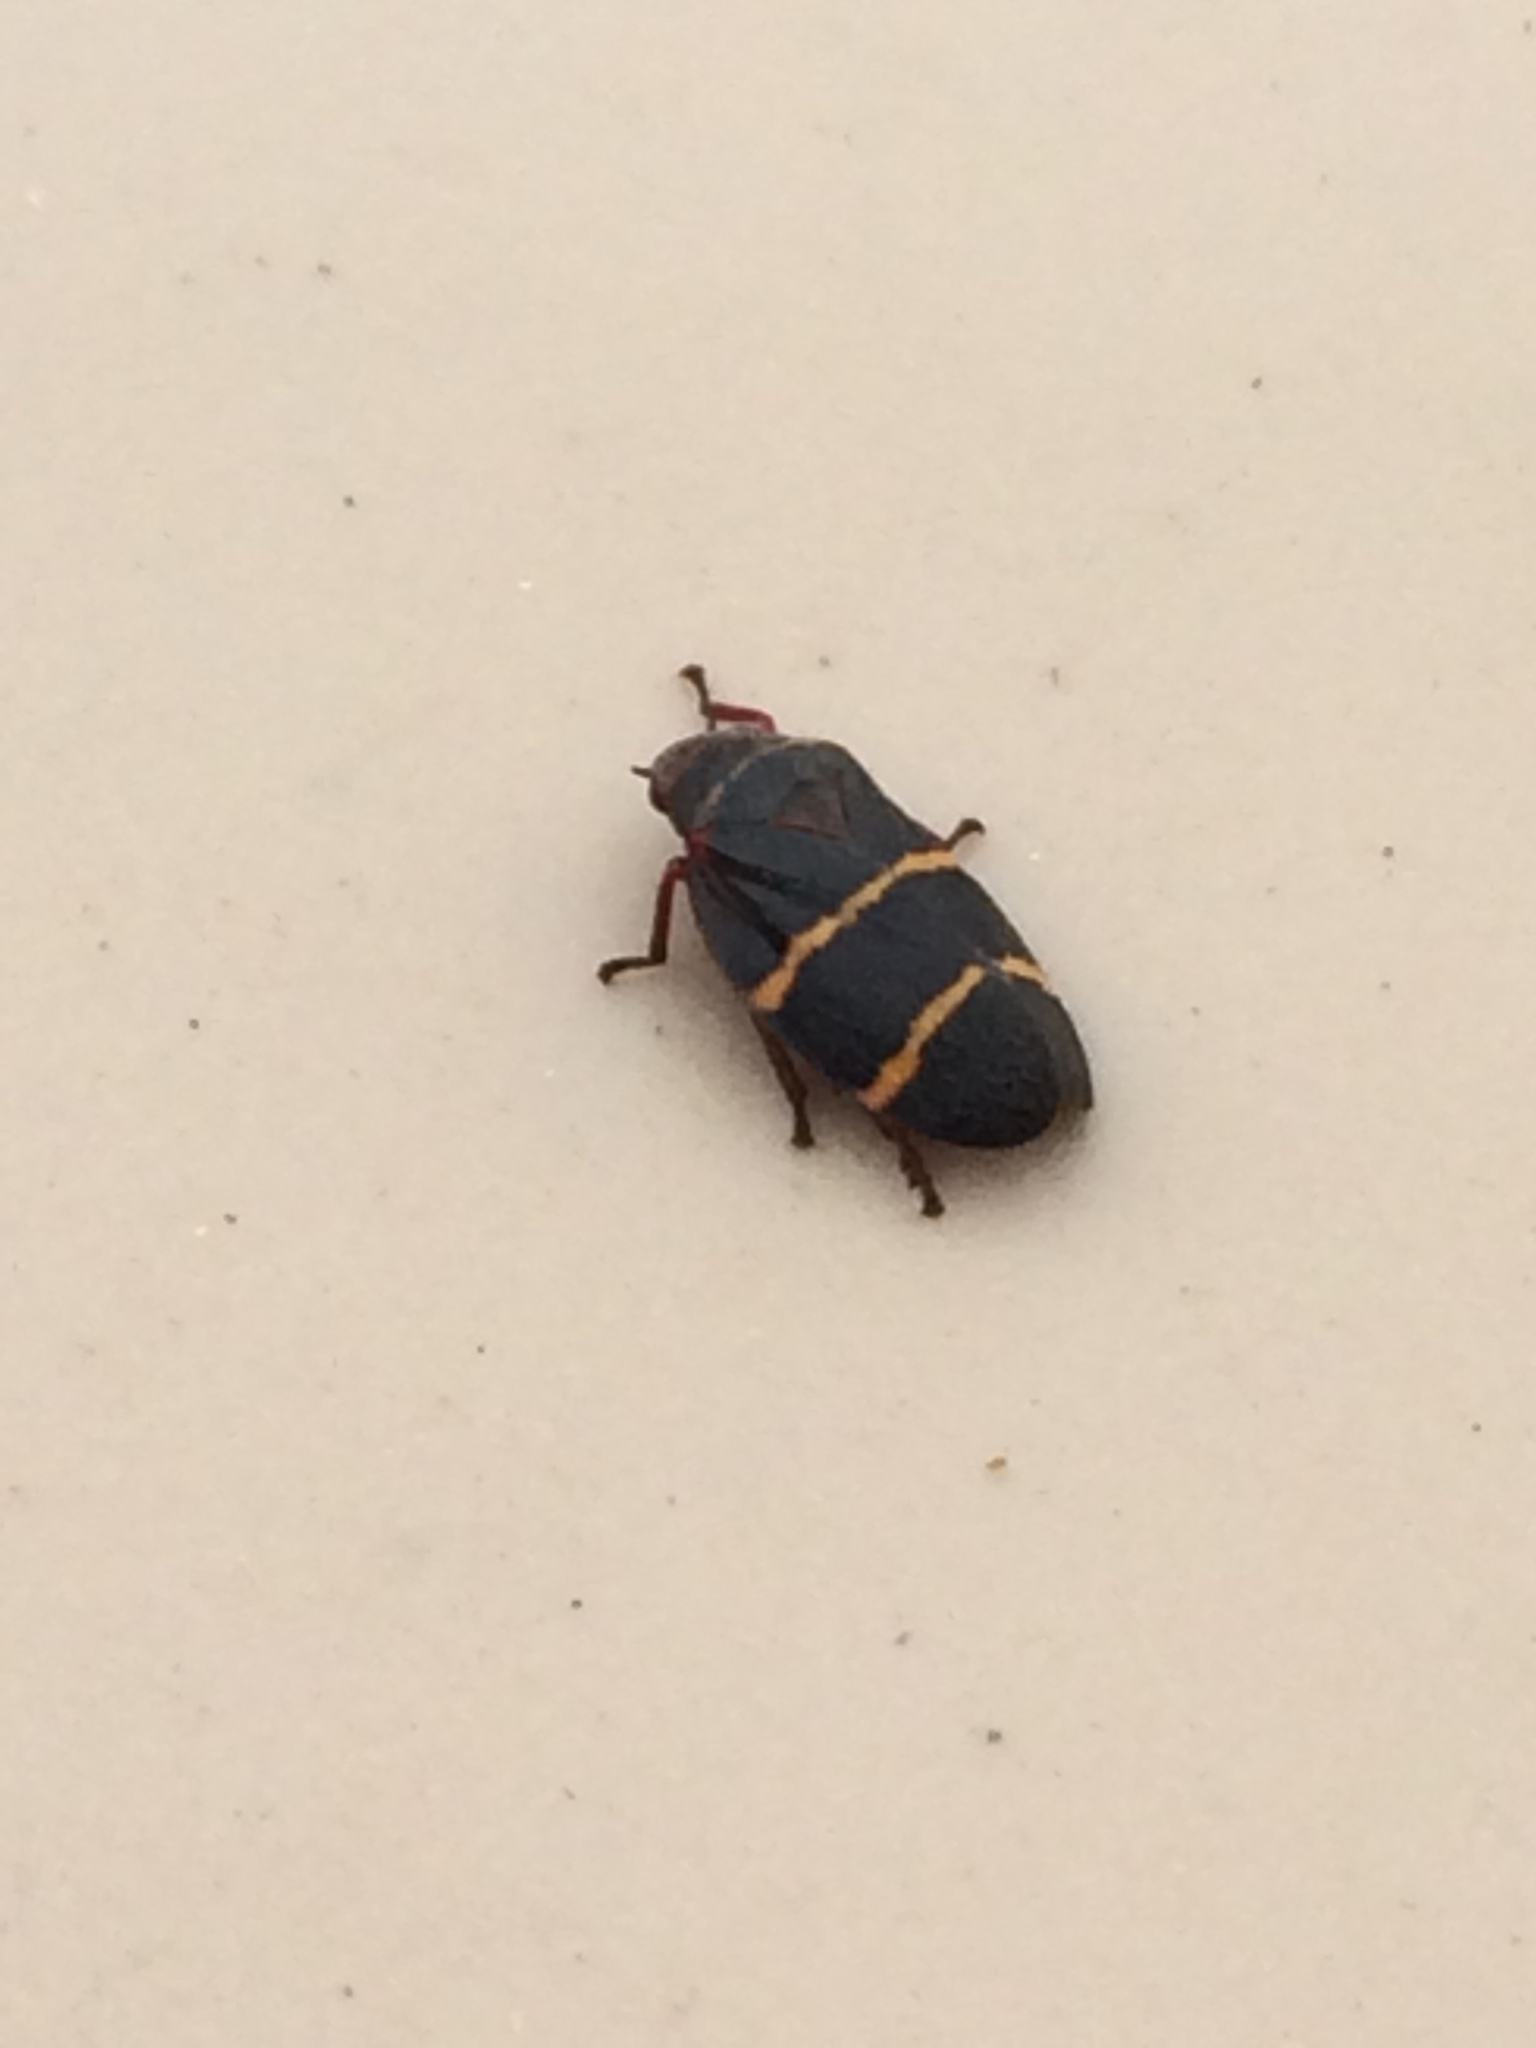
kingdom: Animalia
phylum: Arthropoda
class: Insecta
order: Hemiptera
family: Cercopidae
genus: Prosapia
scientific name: Prosapia bicincta
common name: Twolined spittlebug
